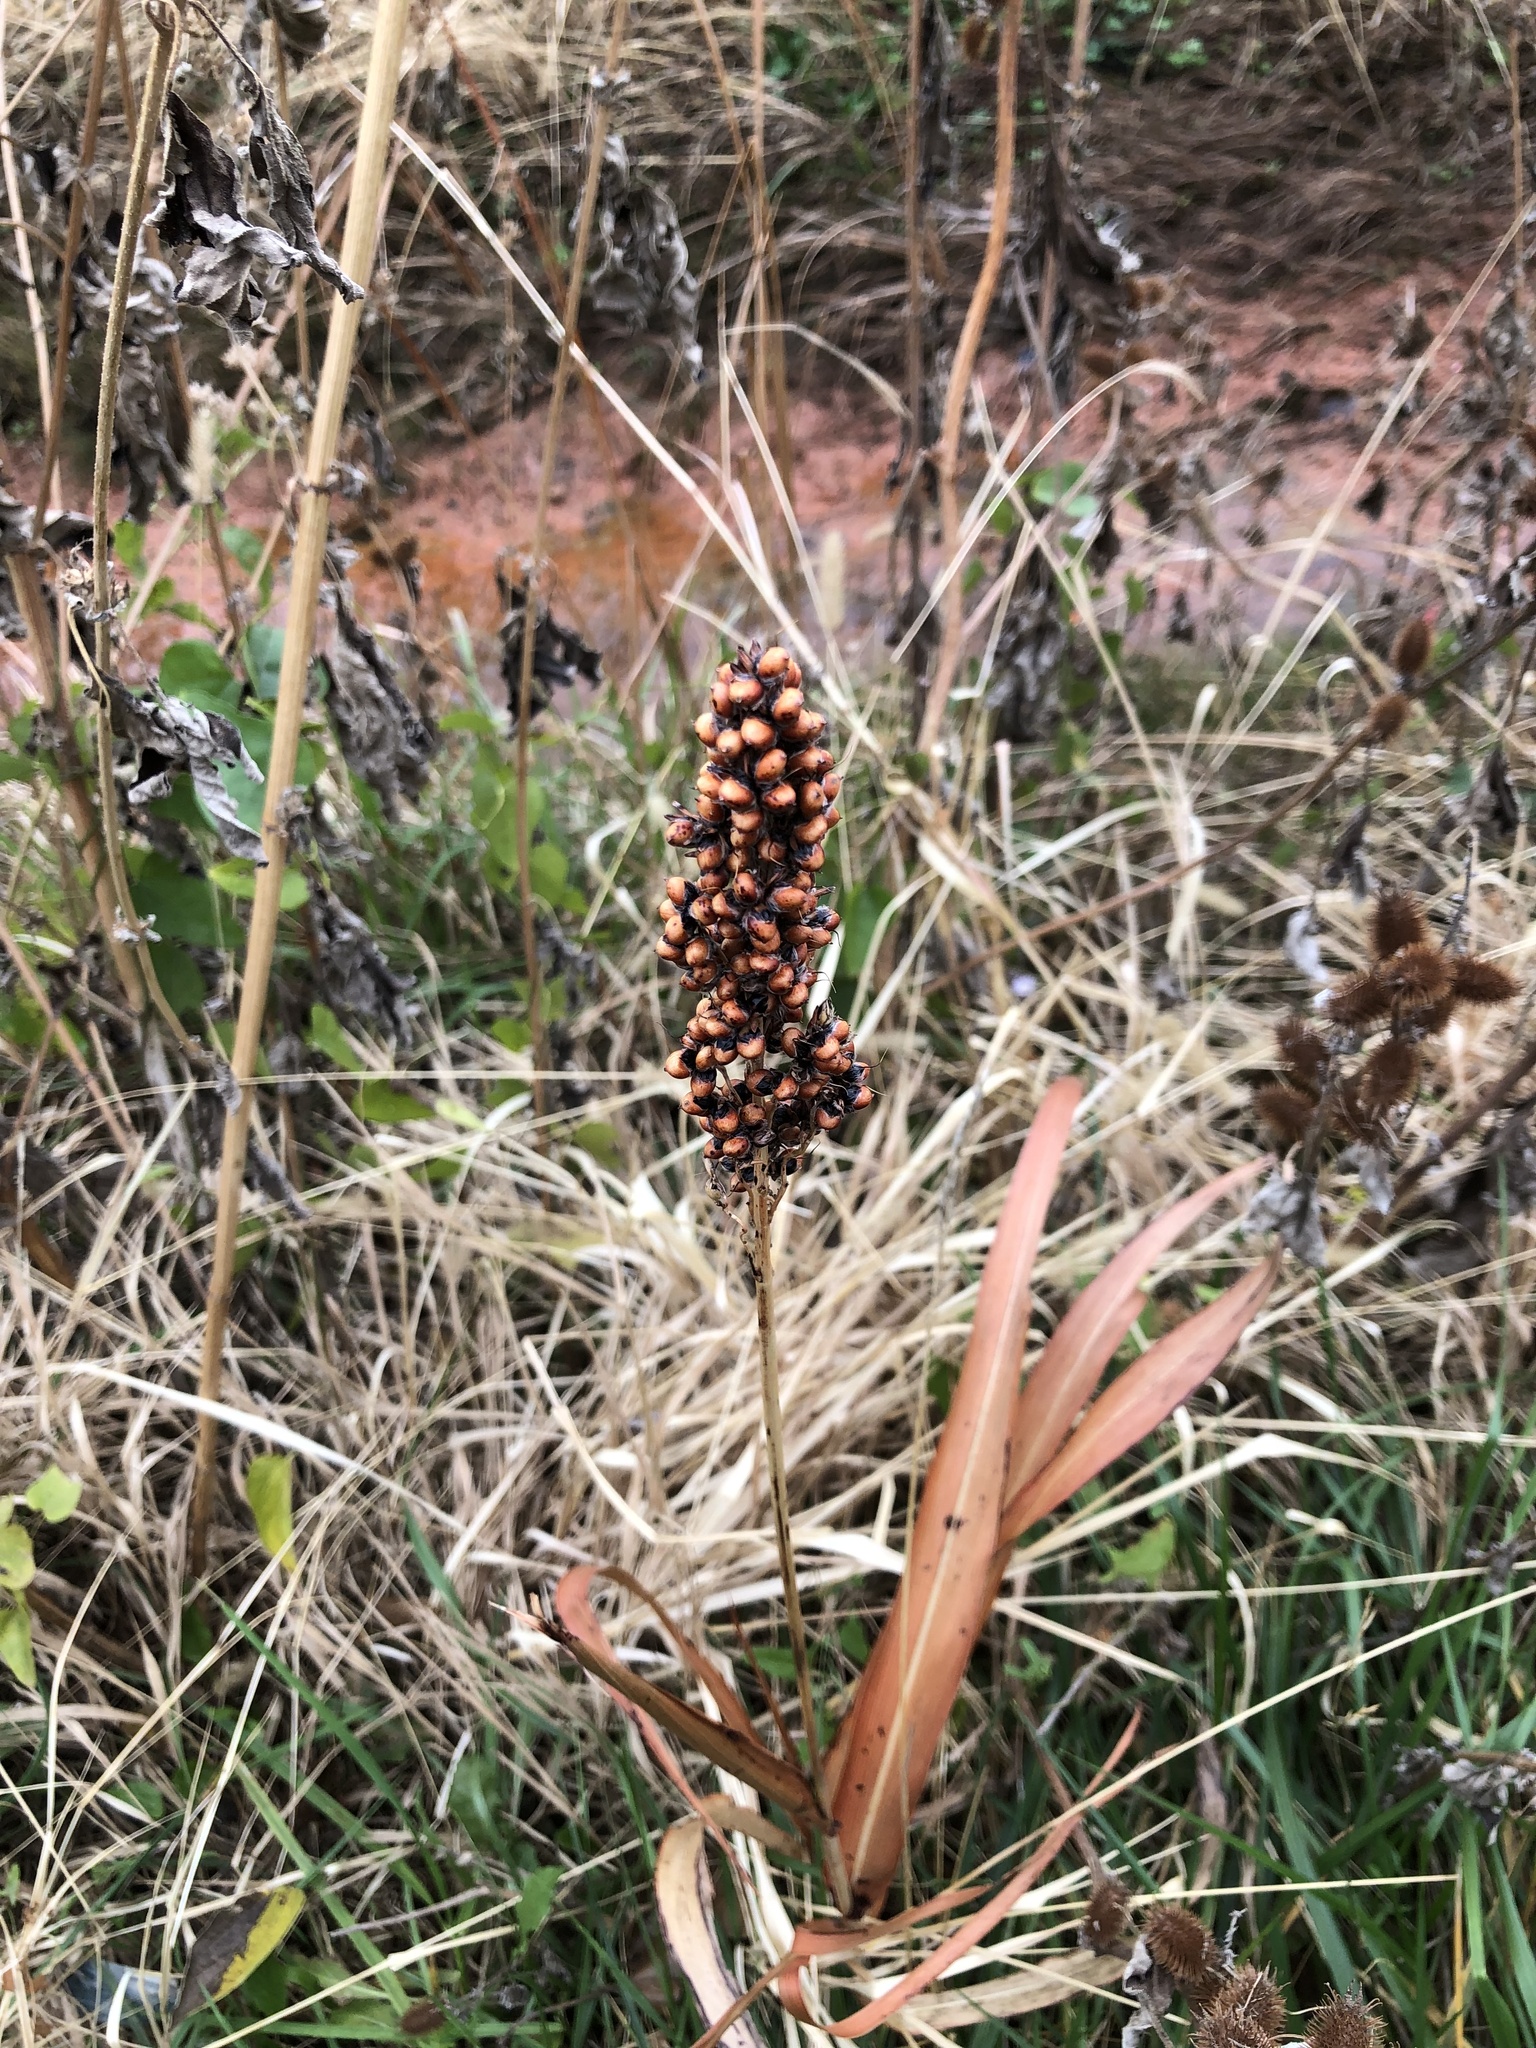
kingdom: Plantae
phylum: Tracheophyta
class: Liliopsida
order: Poales
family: Poaceae
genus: Sorghum
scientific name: Sorghum bicolor
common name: Sorghum
